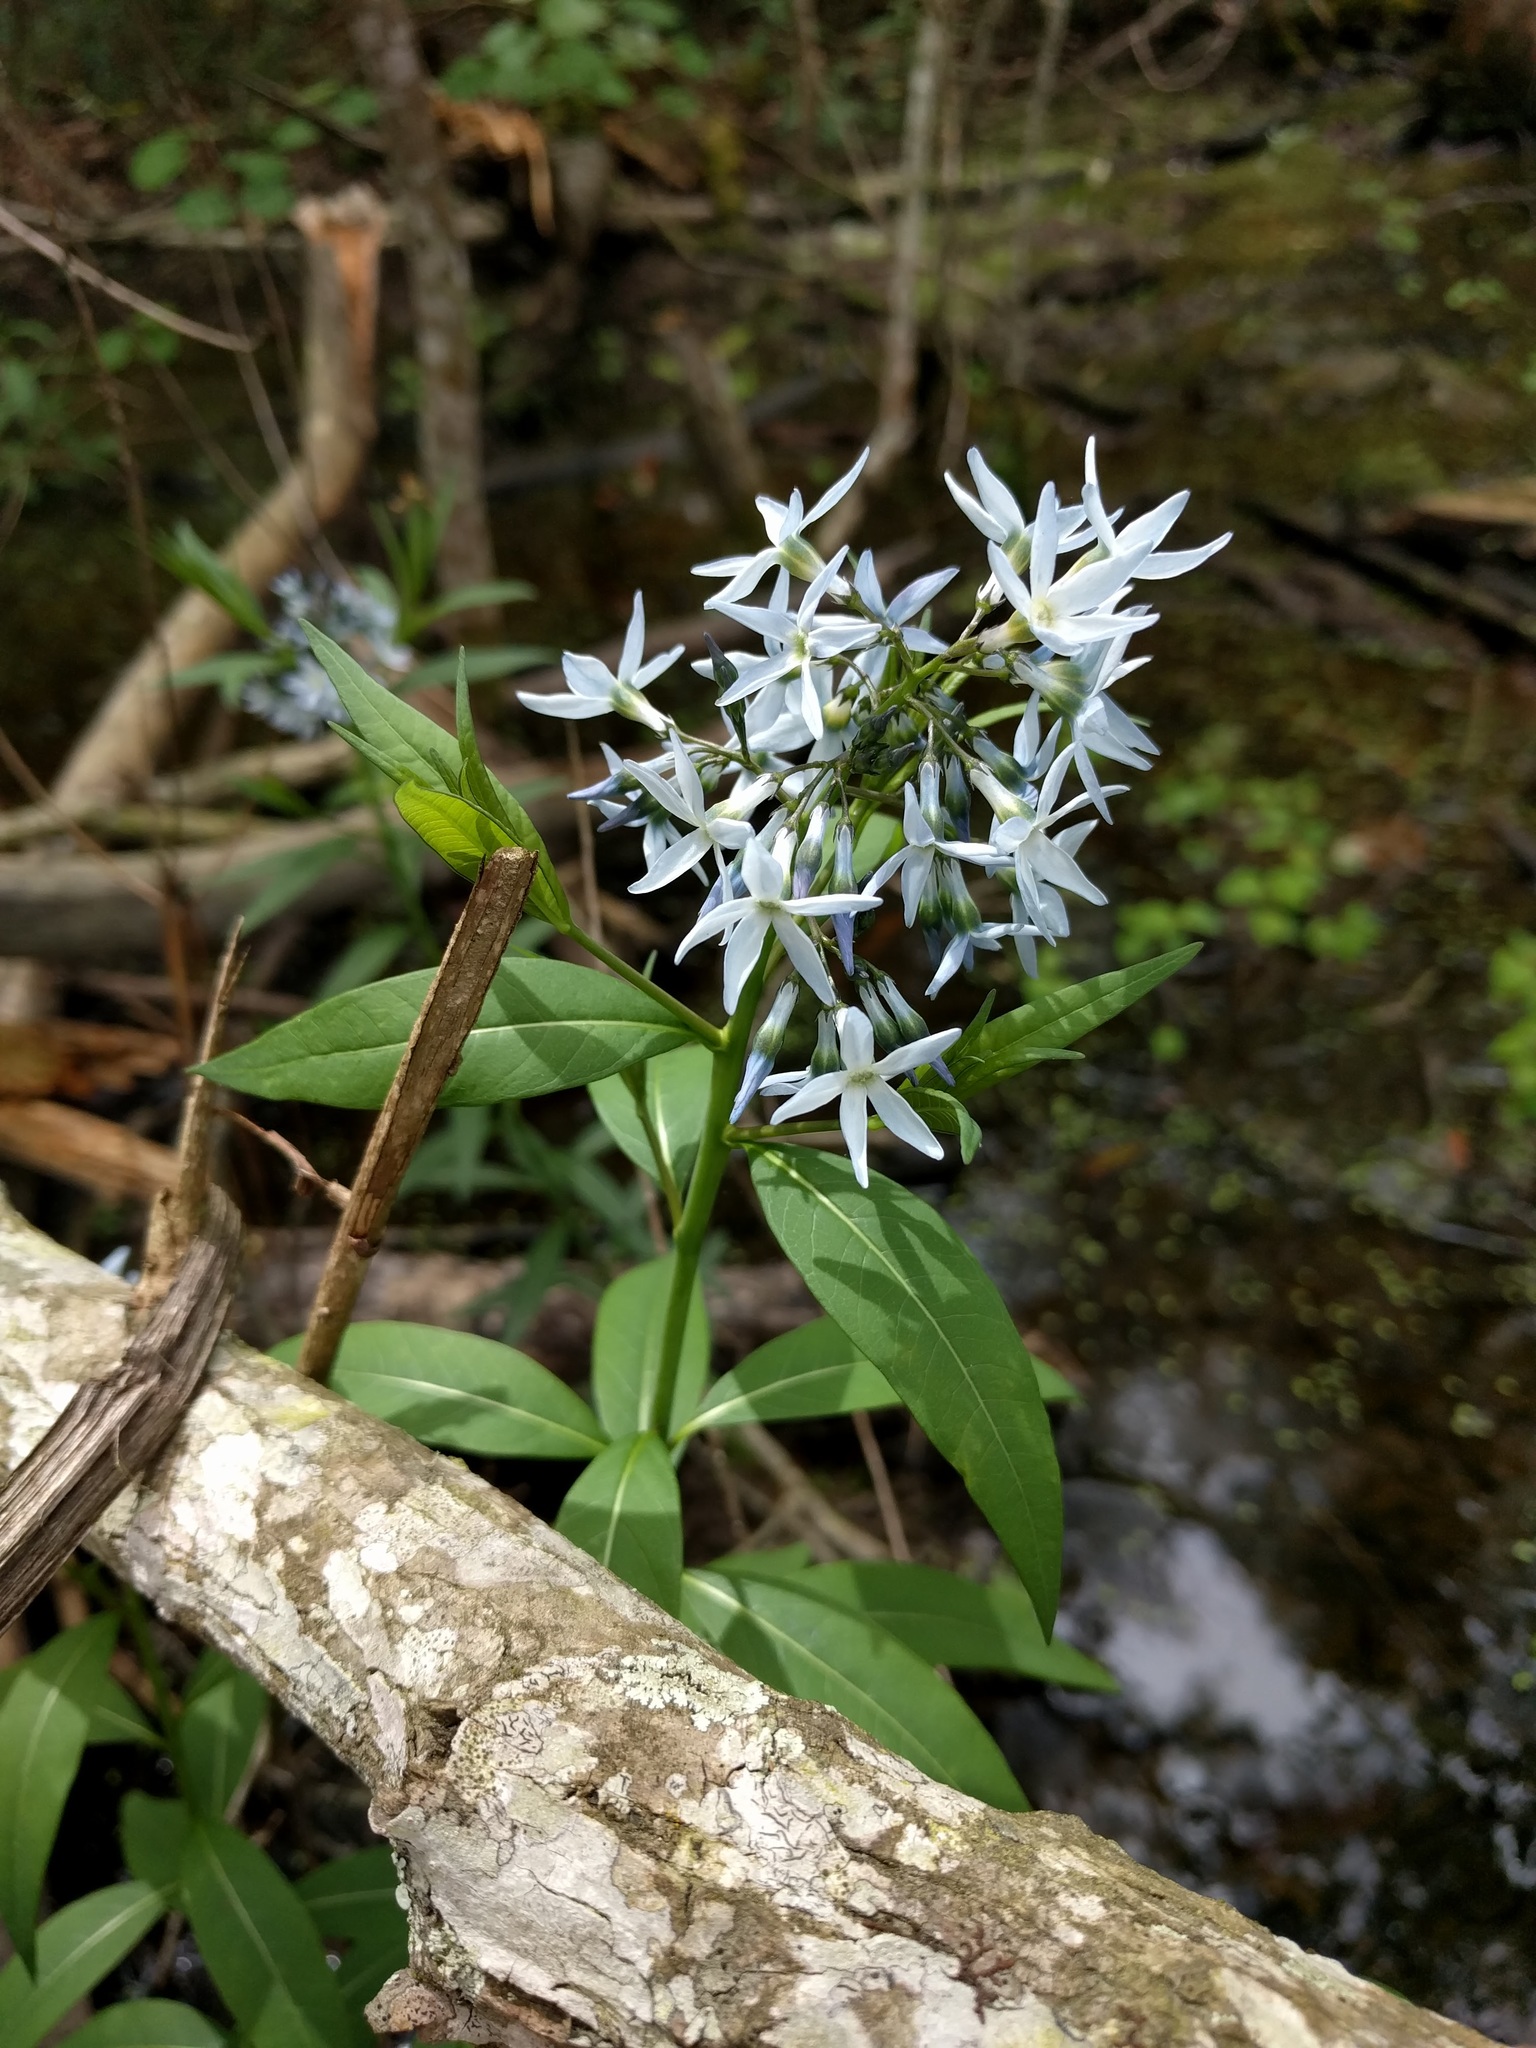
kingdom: Plantae
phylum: Tracheophyta
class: Magnoliopsida
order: Gentianales
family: Apocynaceae
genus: Amsonia
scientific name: Amsonia tabernaemontana
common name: Texas-star
